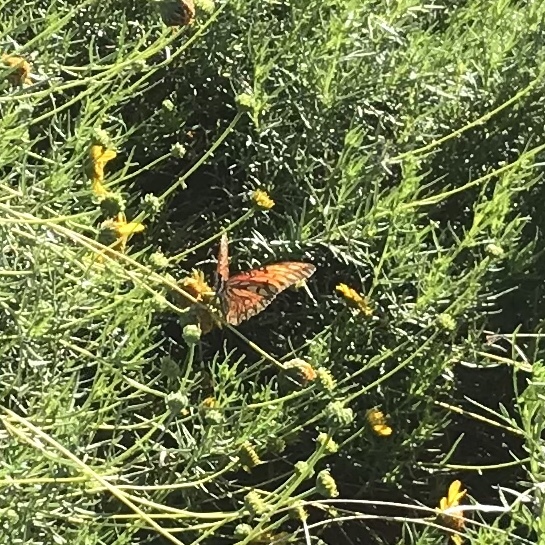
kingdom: Animalia
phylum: Arthropoda
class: Insecta
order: Lepidoptera
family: Nymphalidae
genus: Dione
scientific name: Dione vanillae
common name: Gulf fritillary
